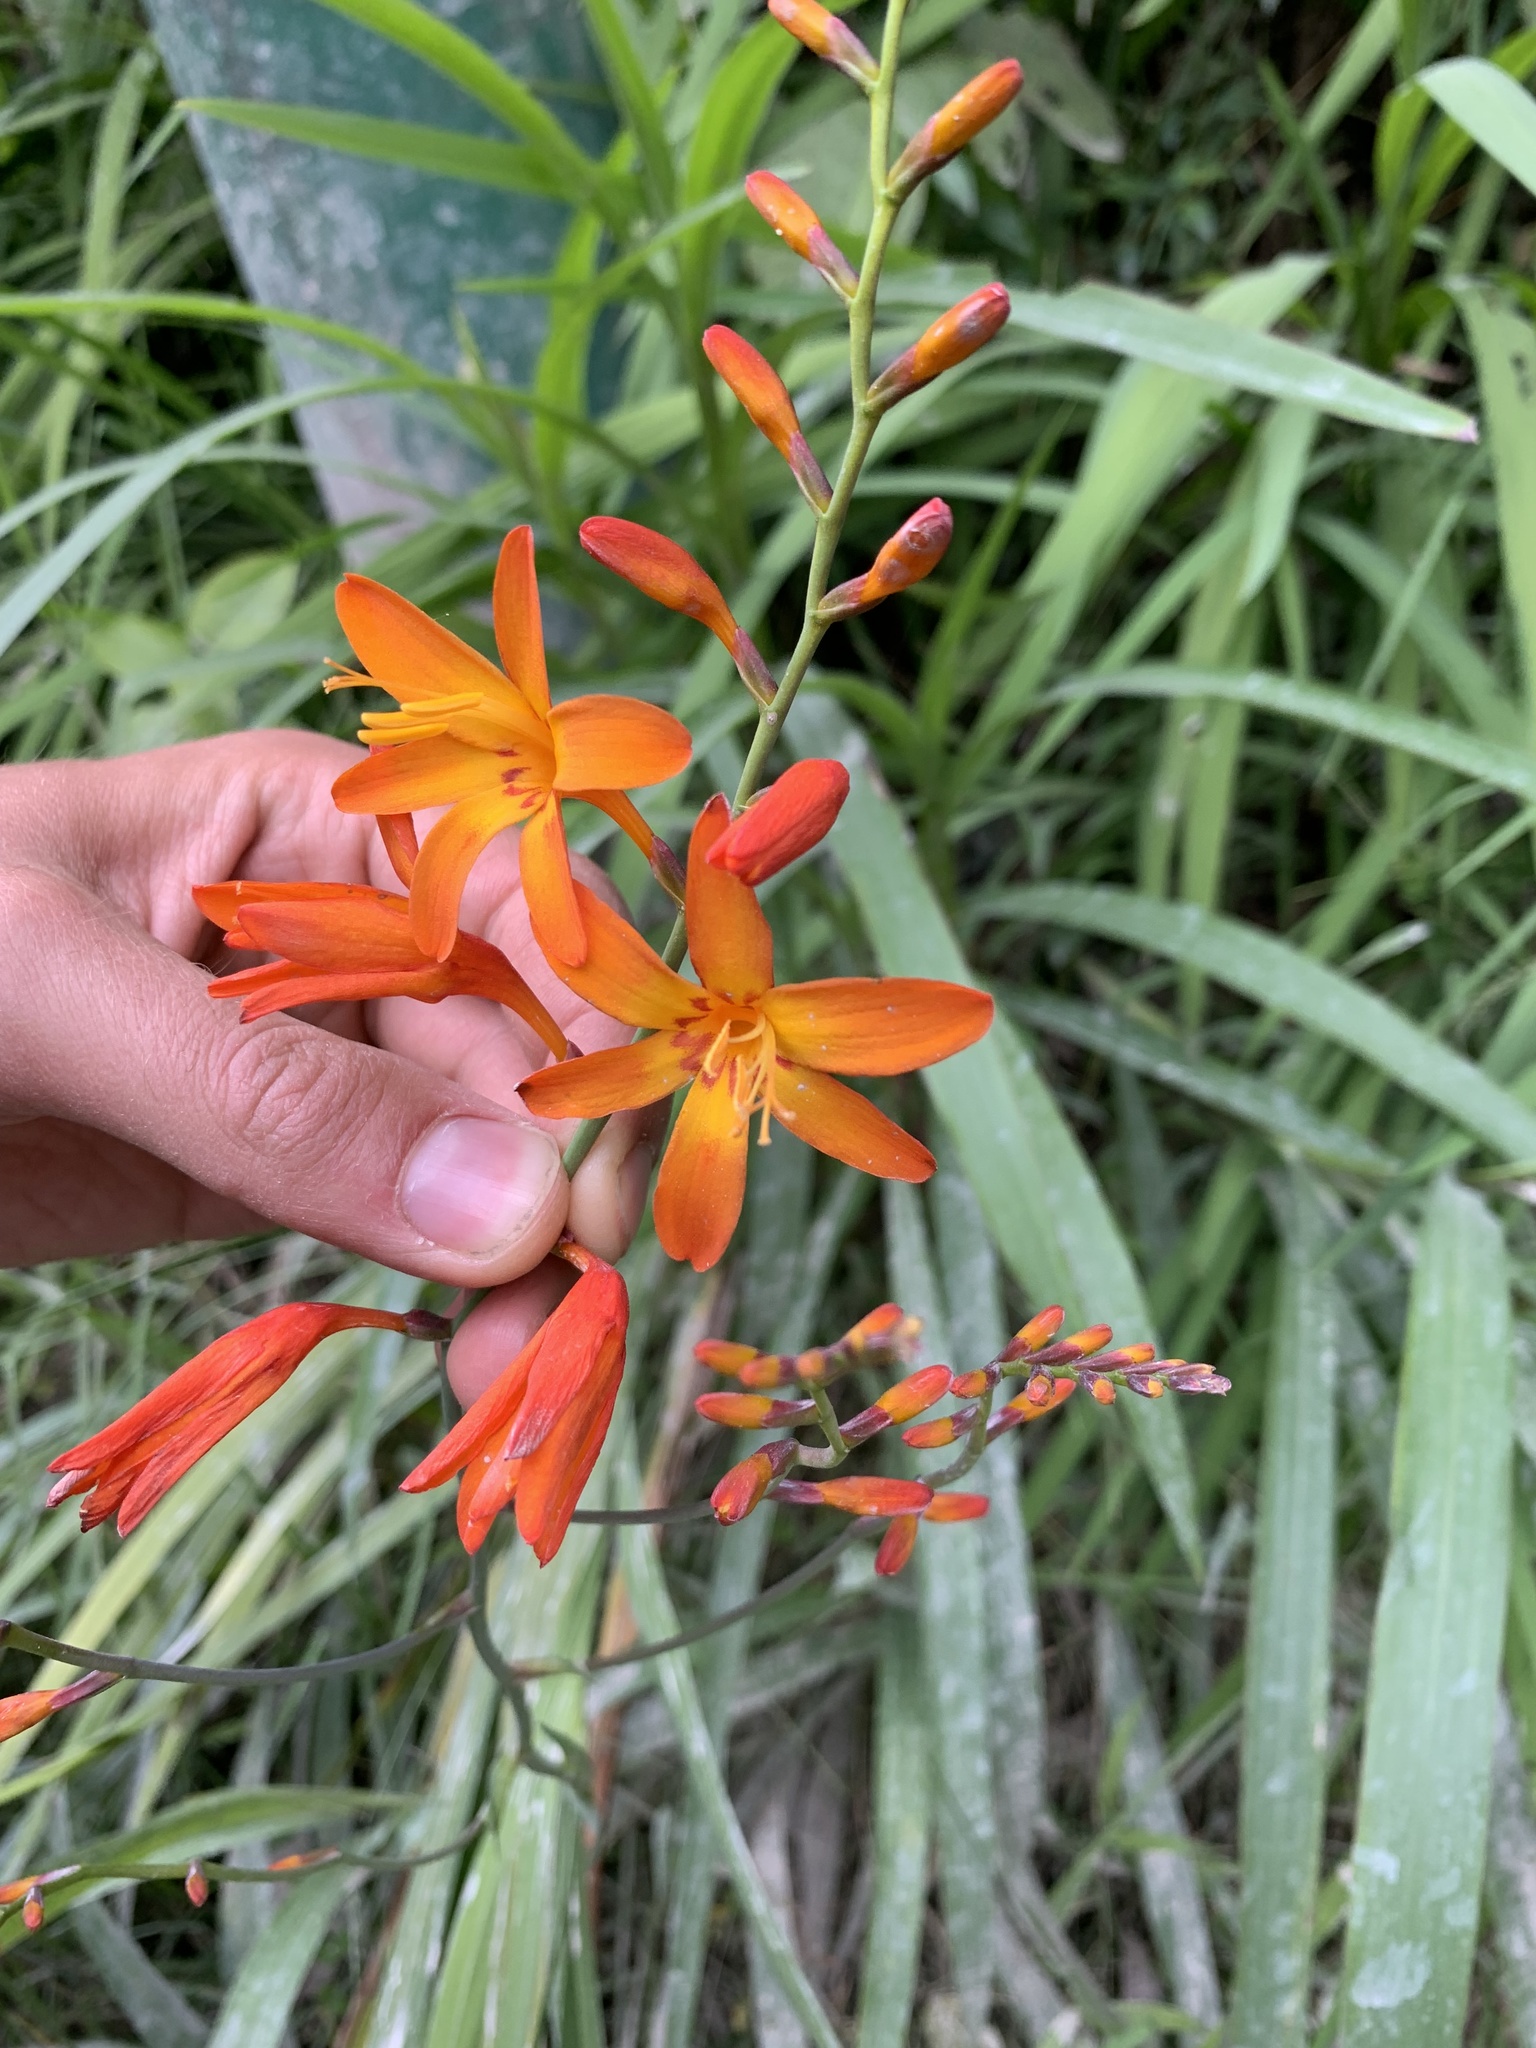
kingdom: Plantae
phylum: Tracheophyta
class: Liliopsida
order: Asparagales
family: Iridaceae
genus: Crocosmia
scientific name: Crocosmia crocosmiiflora
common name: Montbretia
